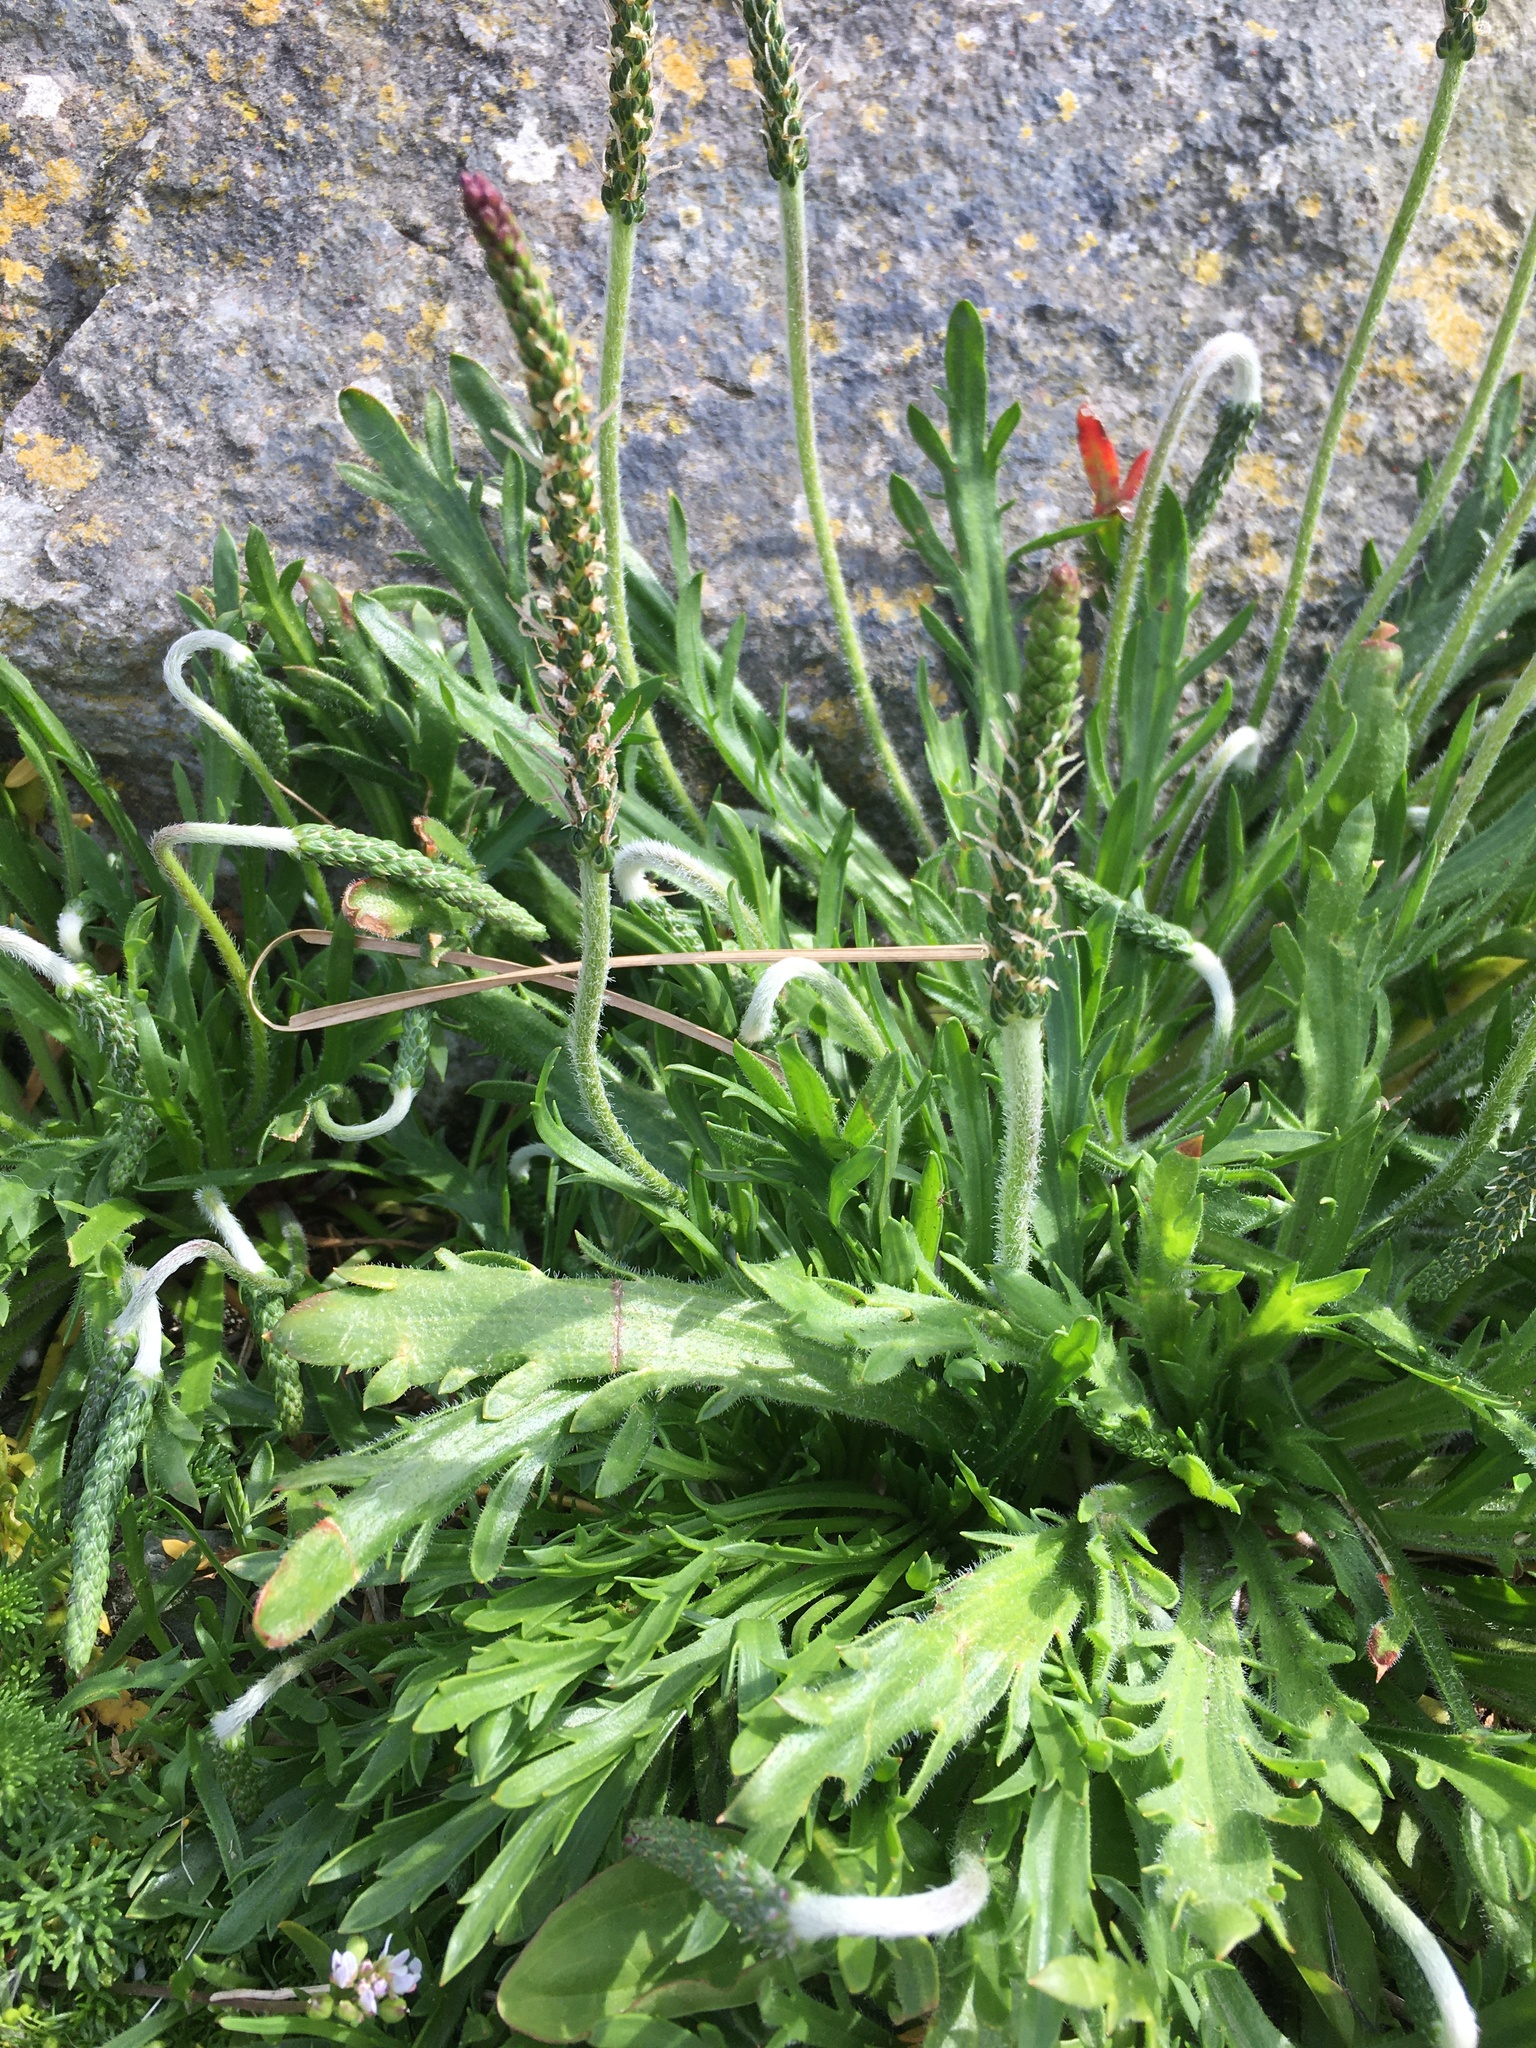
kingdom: Plantae
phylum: Tracheophyta
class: Magnoliopsida
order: Lamiales
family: Plantaginaceae
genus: Plantago
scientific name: Plantago coronopus
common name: Buck's-horn plantain
